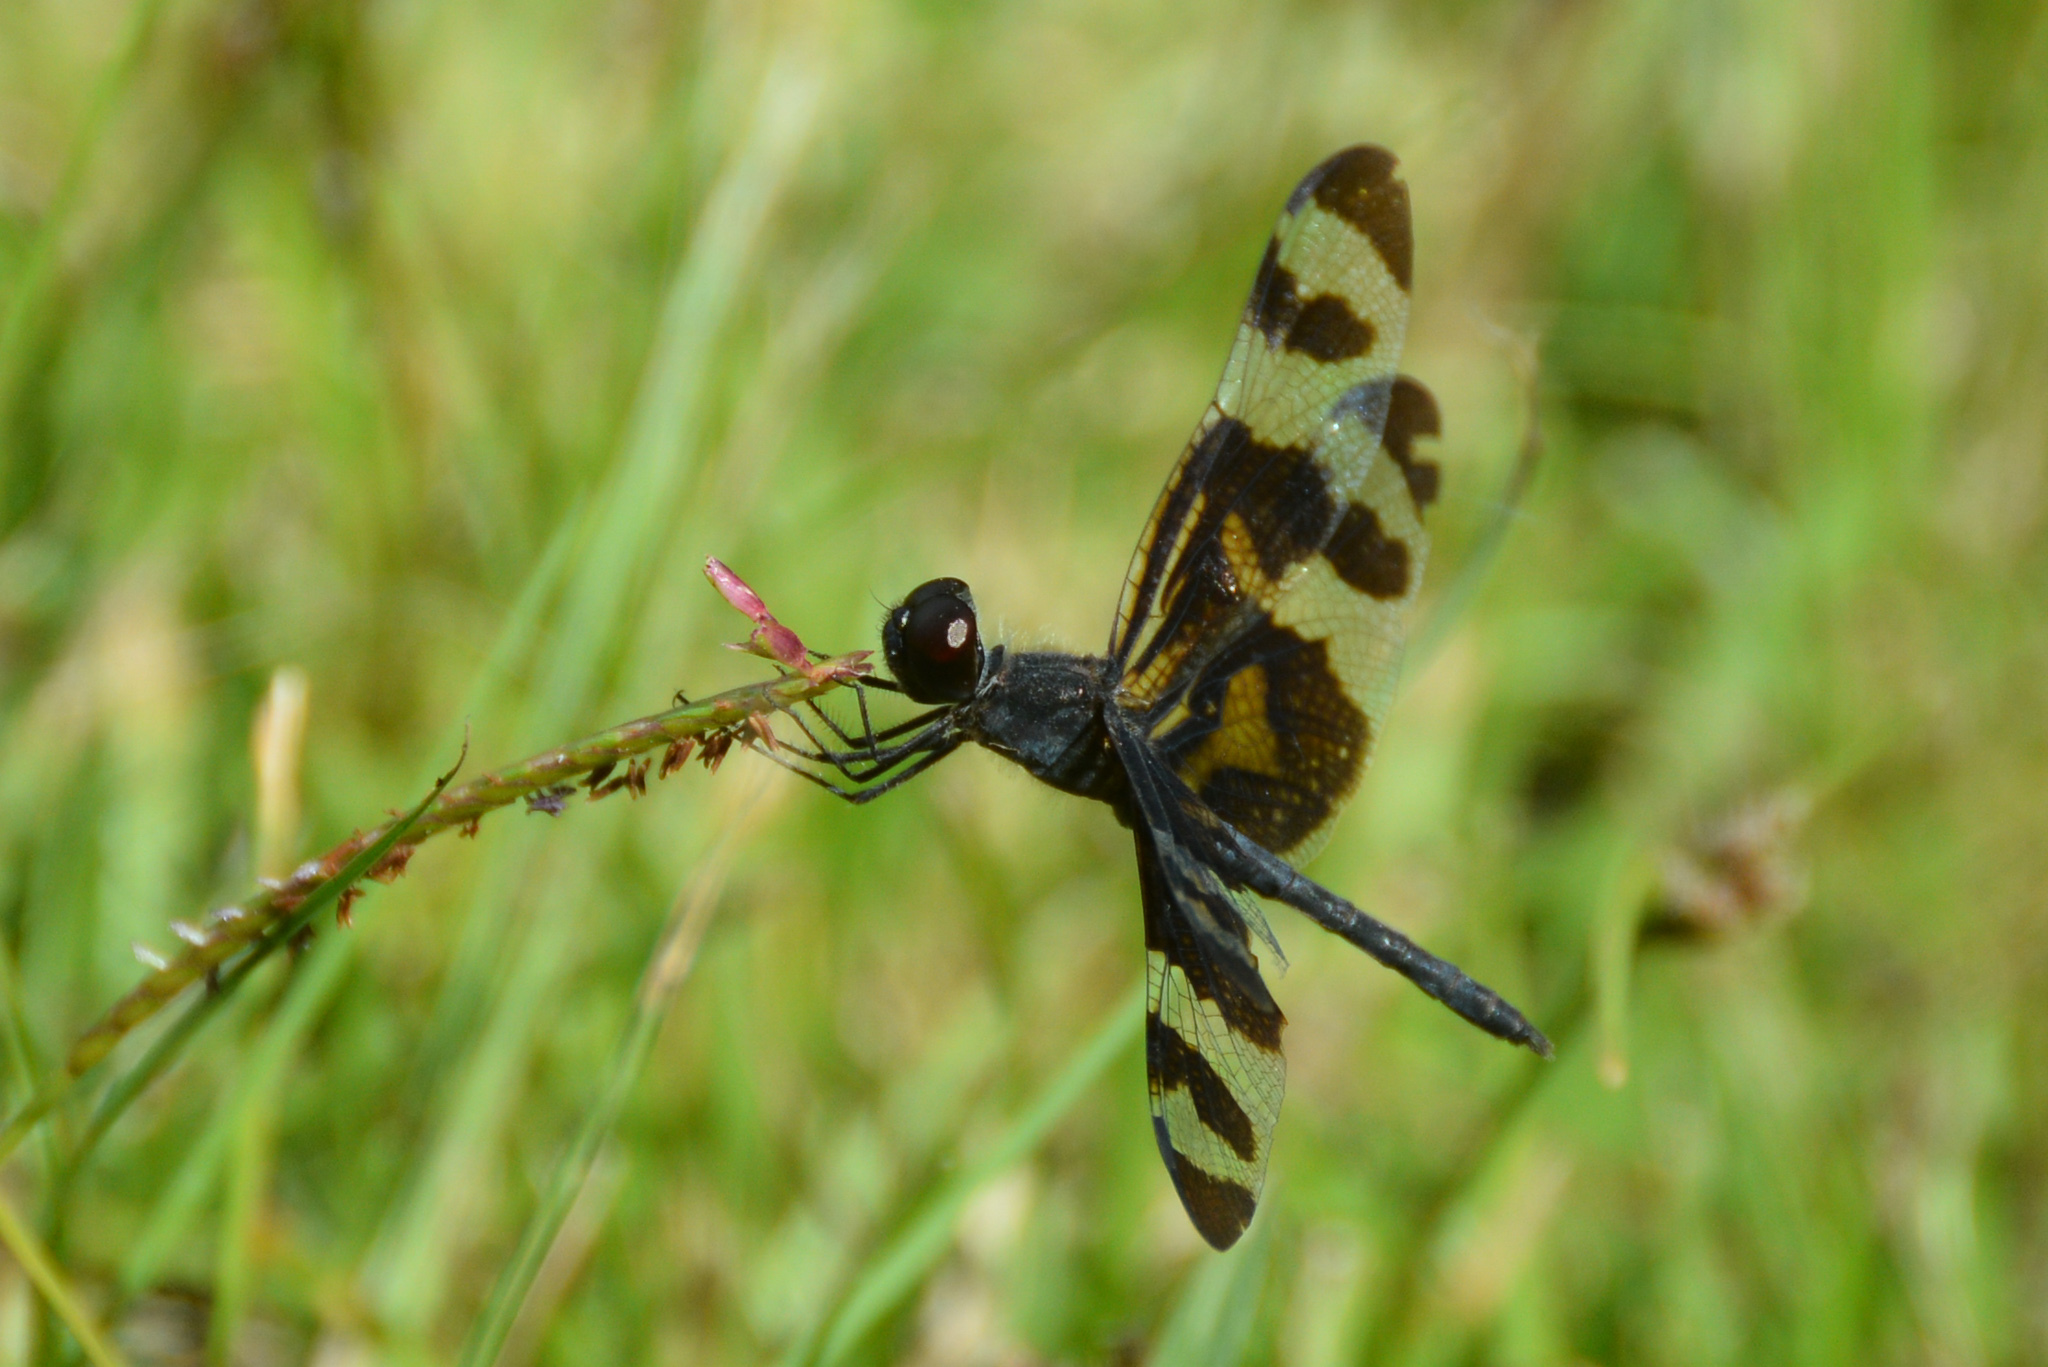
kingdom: Animalia
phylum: Arthropoda
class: Insecta
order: Odonata
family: Libellulidae
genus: Celithemis
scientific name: Celithemis fasciata
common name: Banded pennant
